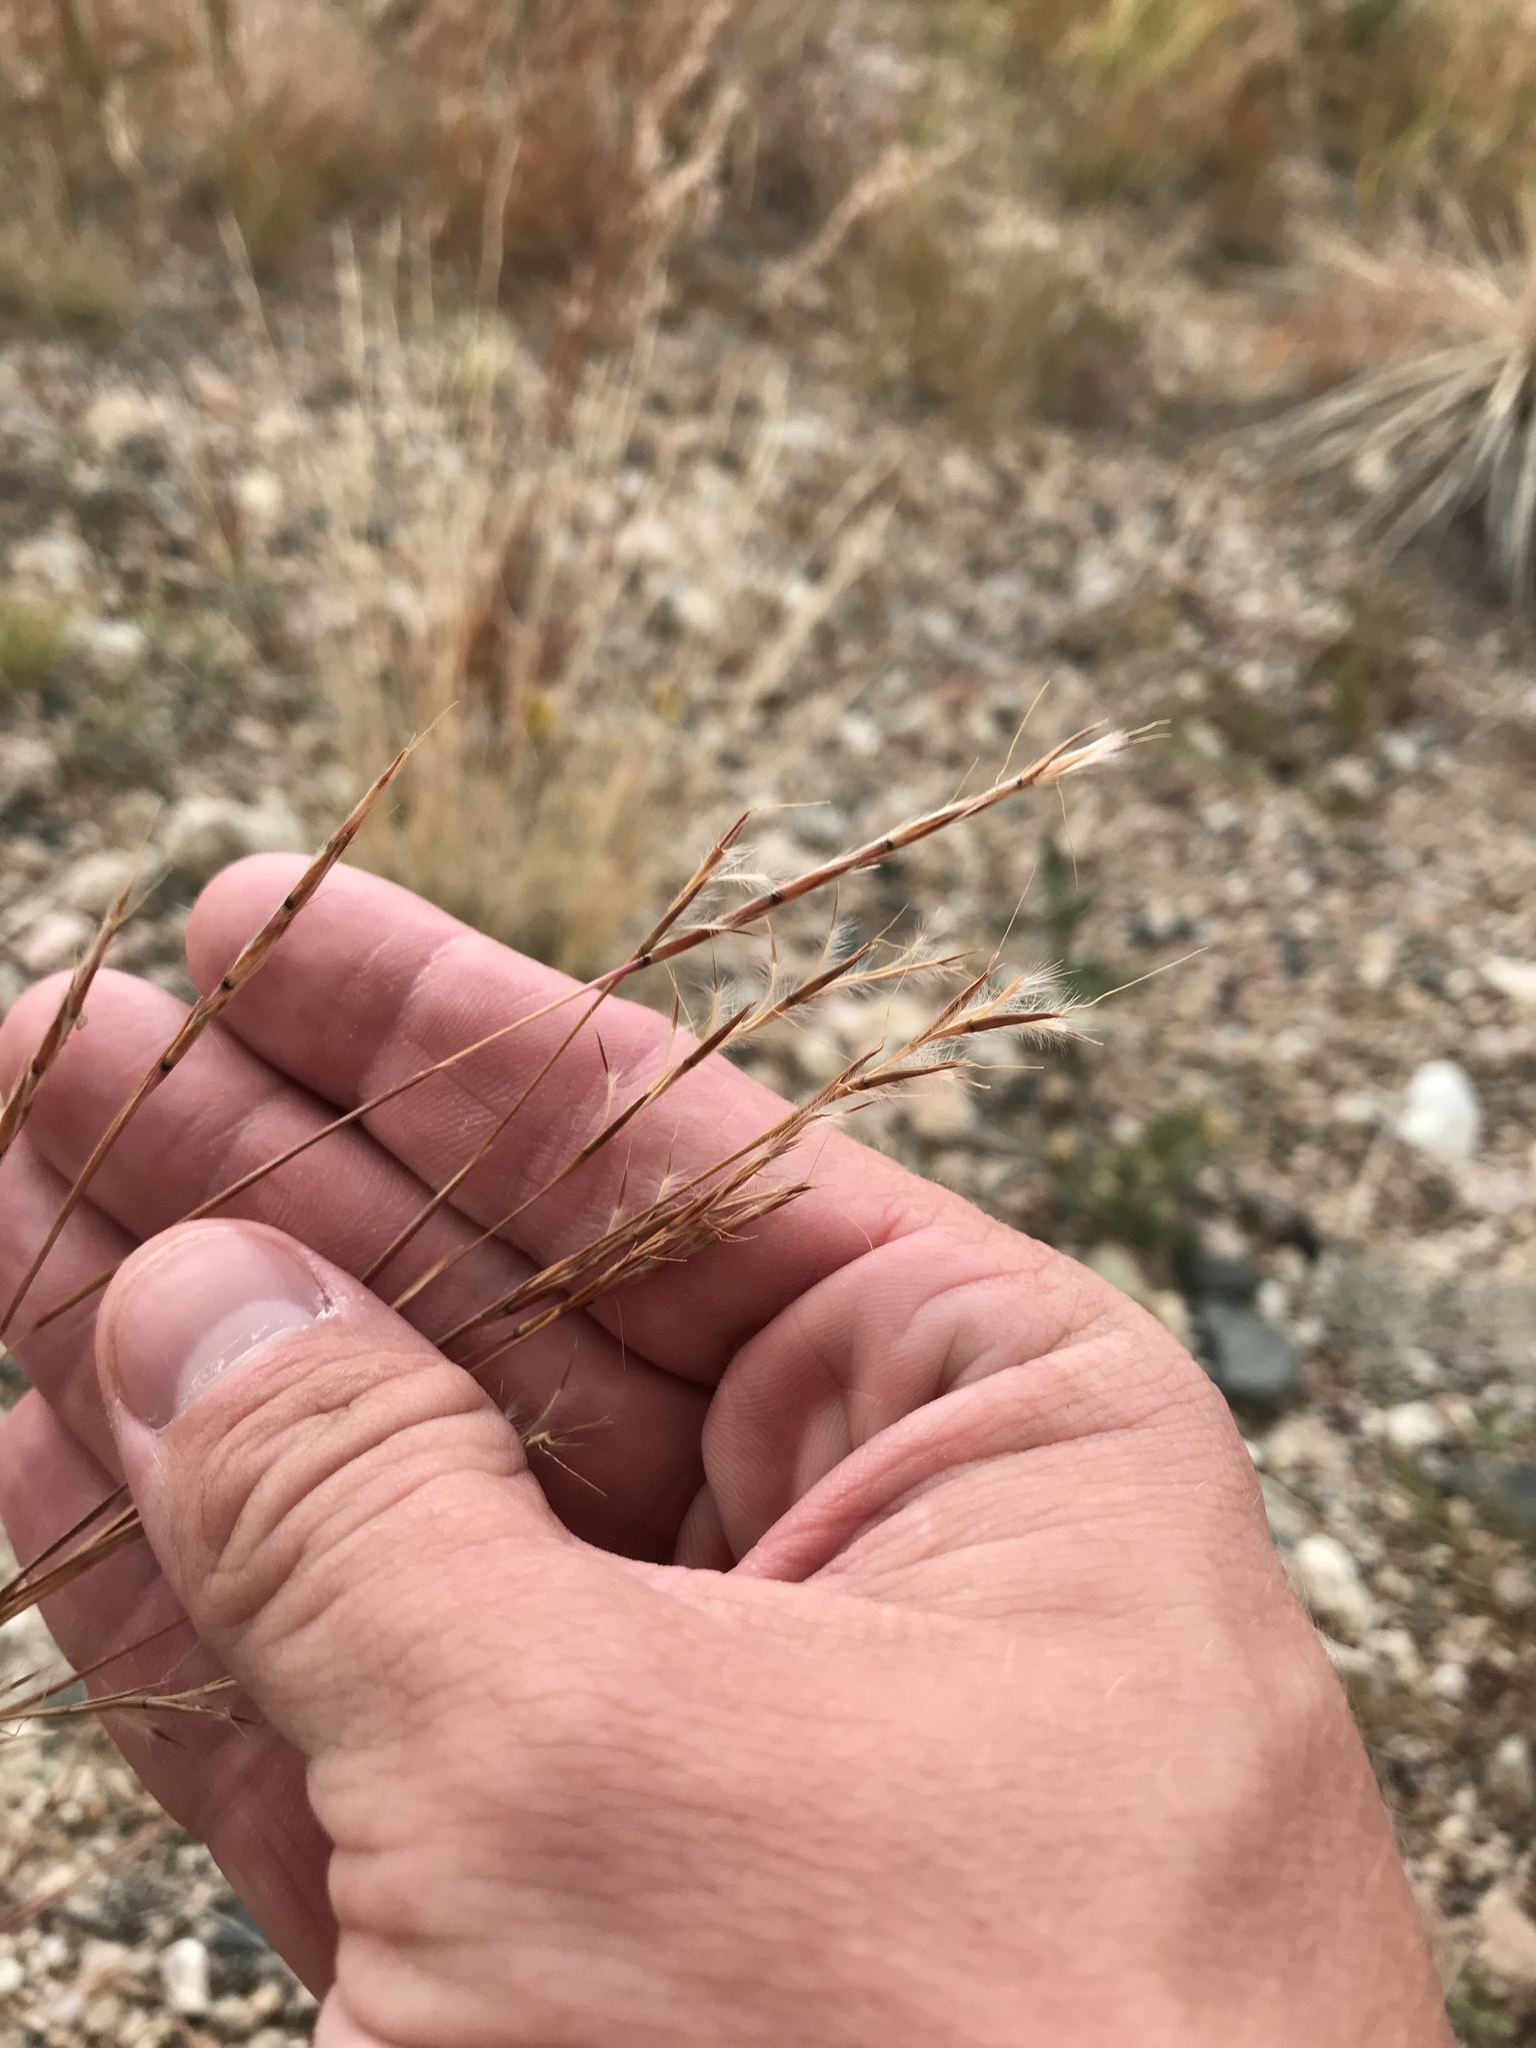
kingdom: Plantae
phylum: Tracheophyta
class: Liliopsida
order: Poales
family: Poaceae
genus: Schizachyrium
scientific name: Schizachyrium scoparium
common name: Little bluestem
